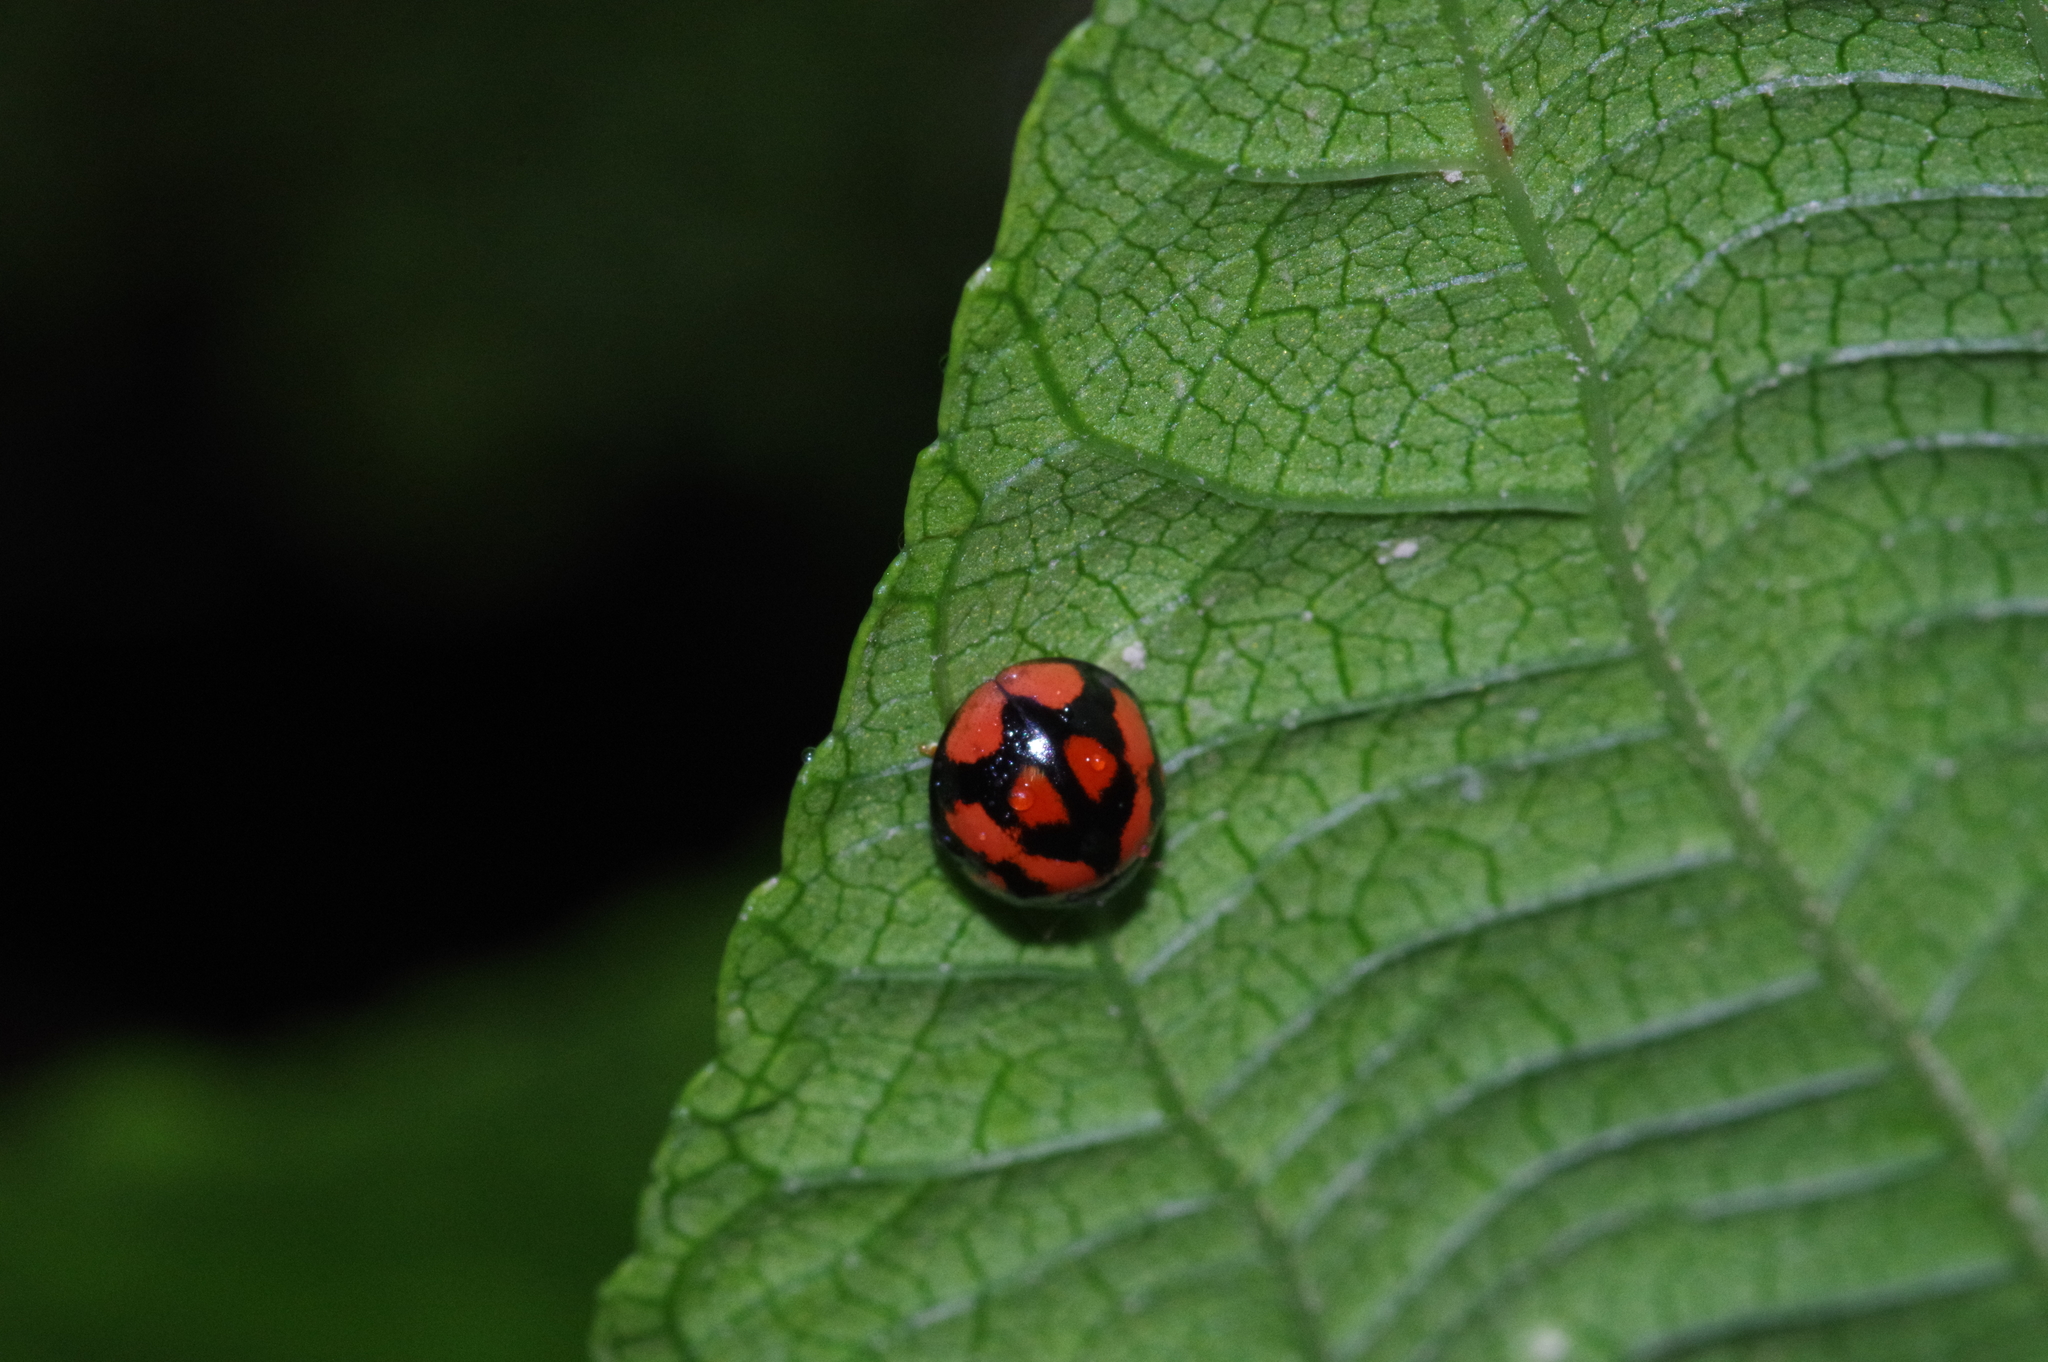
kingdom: Animalia
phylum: Arthropoda
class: Insecta
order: Coleoptera
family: Coccinellidae
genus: Coelophora
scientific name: Coelophora inaequalis
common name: Common australian lady beetle
